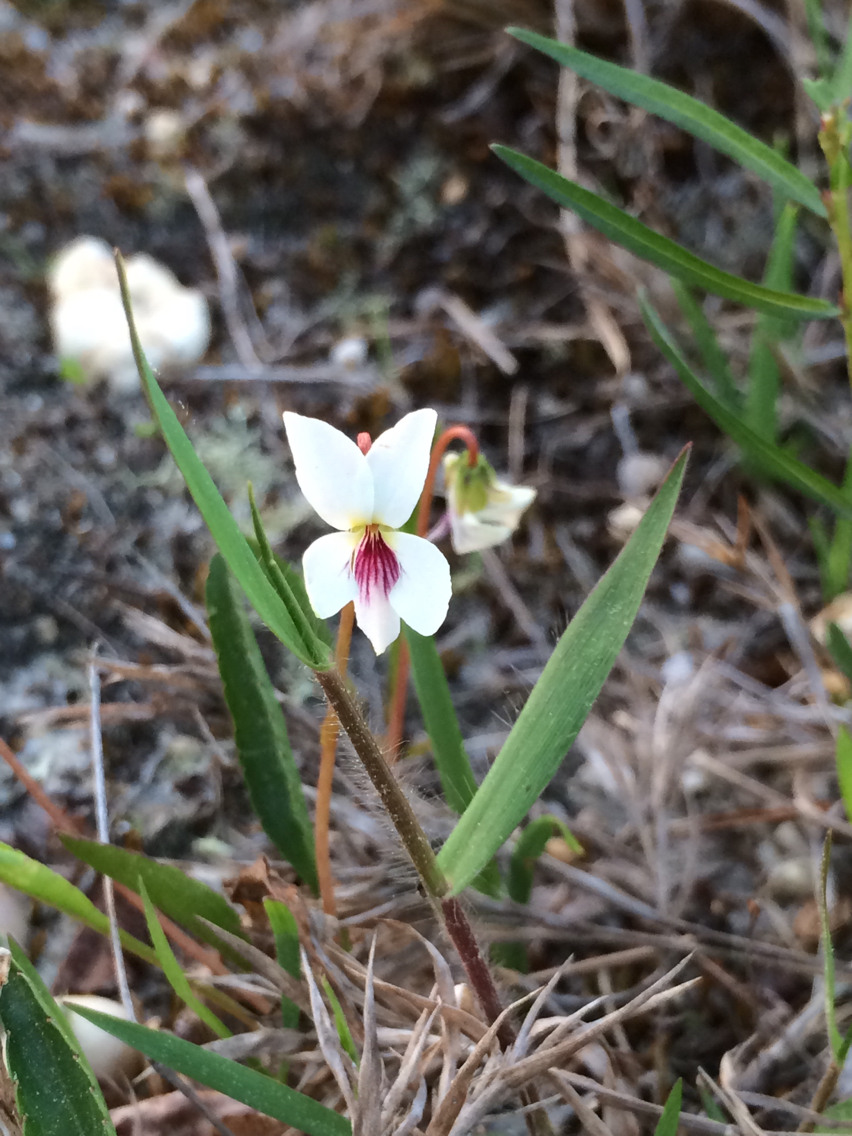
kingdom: Plantae
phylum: Tracheophyta
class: Magnoliopsida
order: Malpighiales
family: Violaceae
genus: Viola
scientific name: Viola lanceolata
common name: Bog white violet
